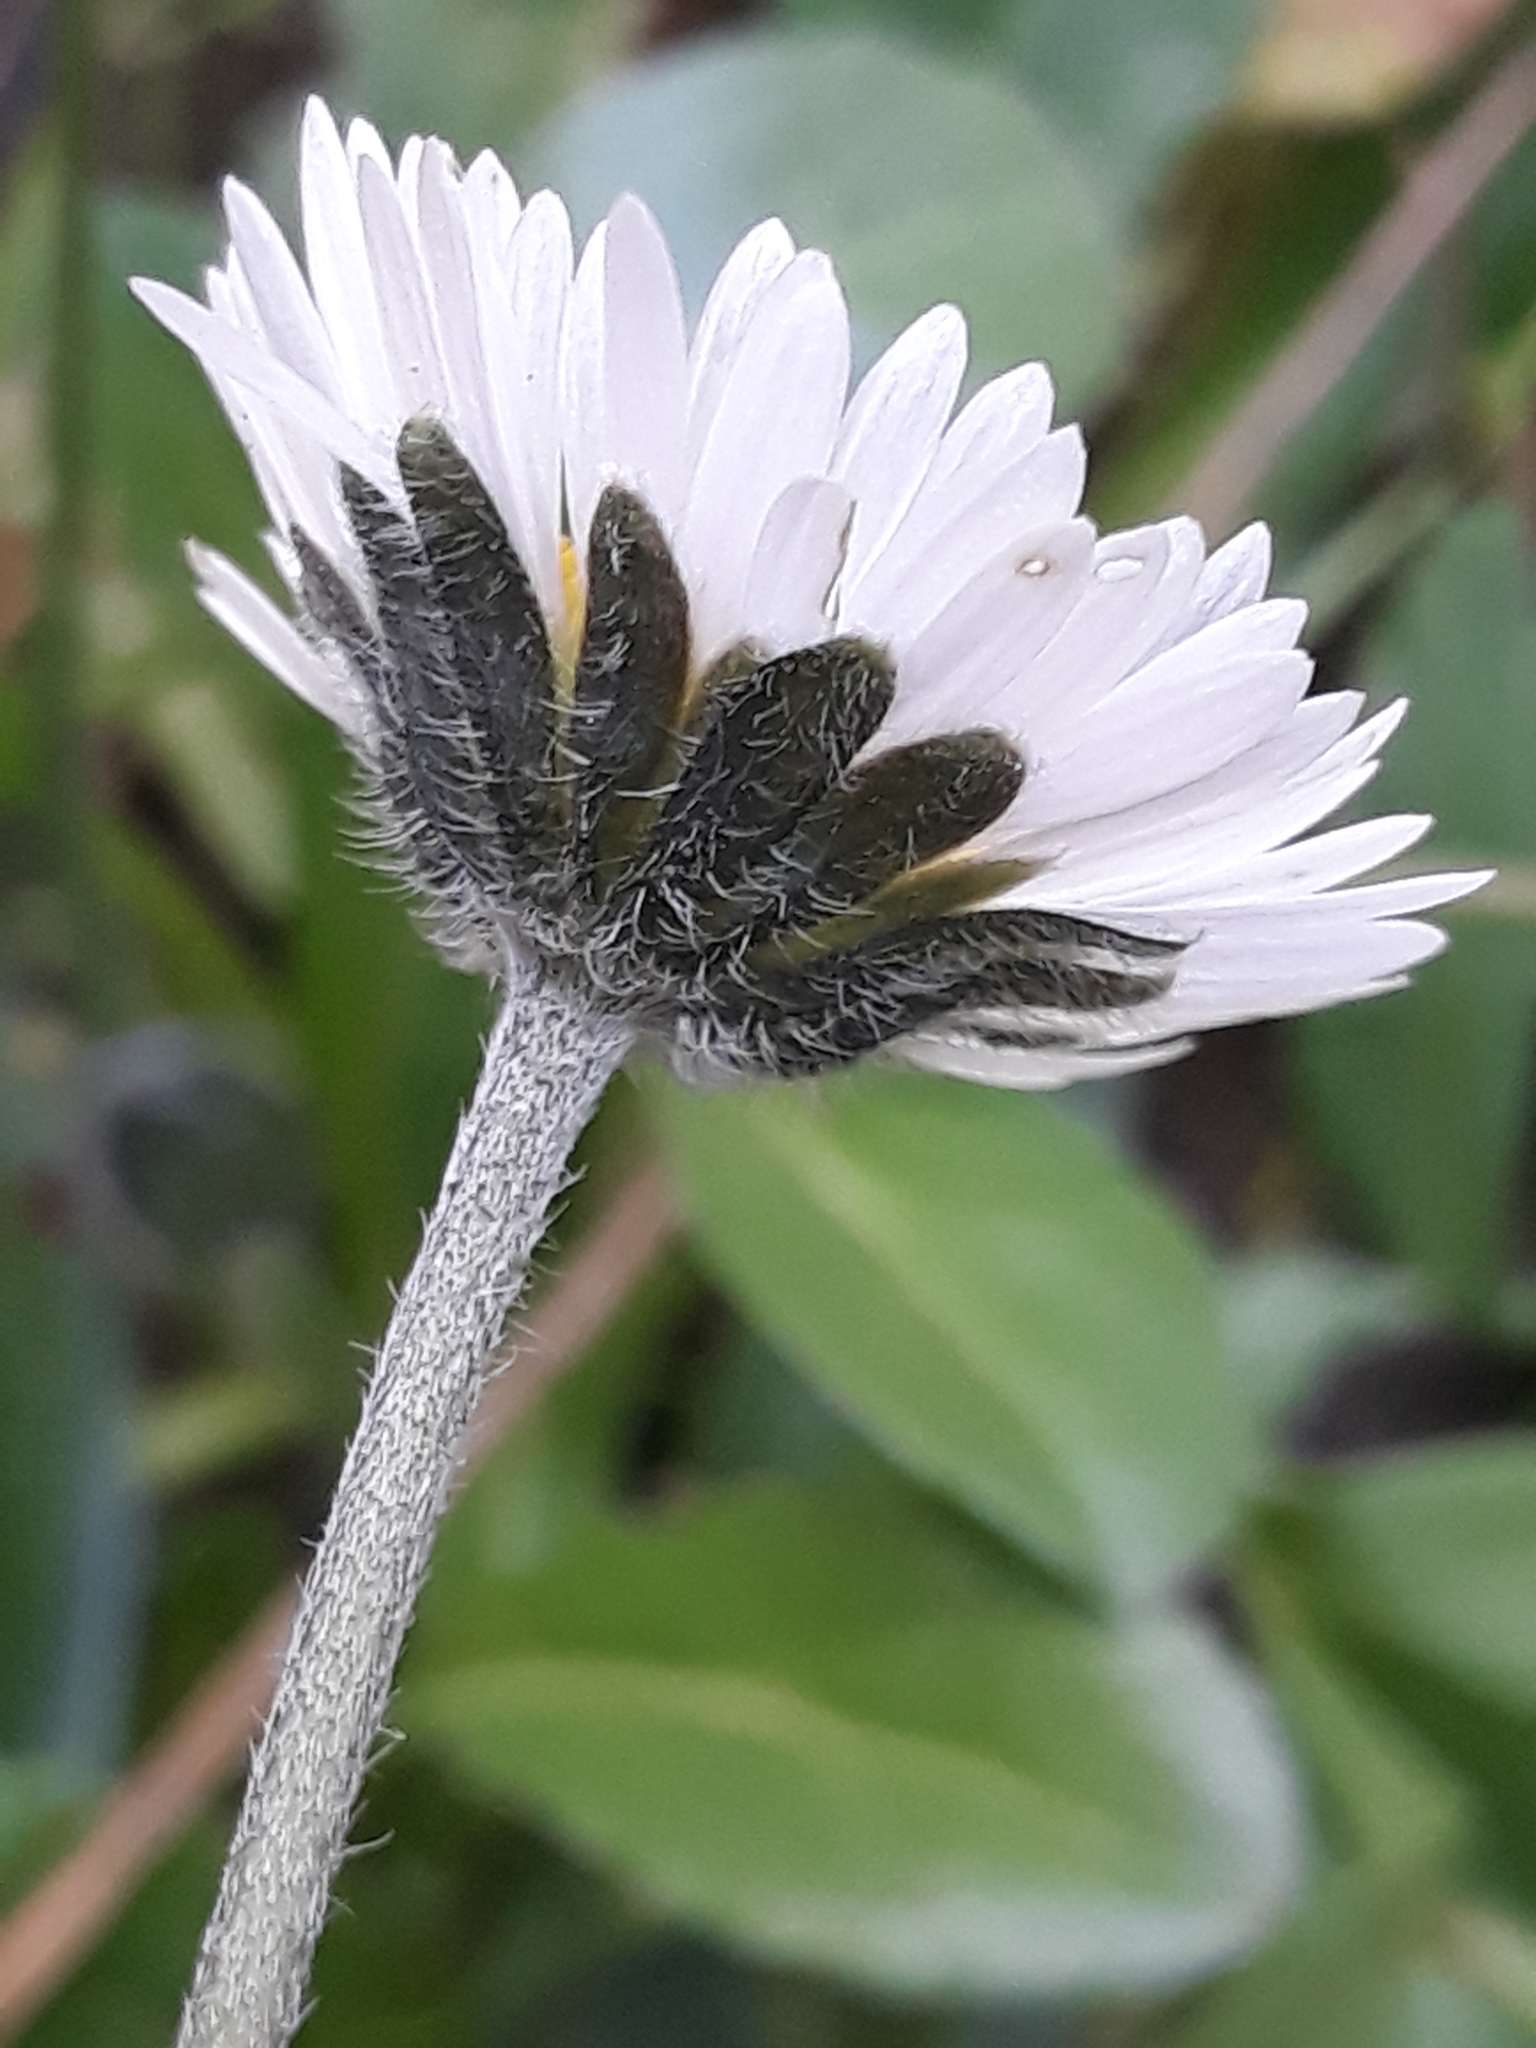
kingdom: Plantae
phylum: Tracheophyta
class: Magnoliopsida
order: Asterales
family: Asteraceae
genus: Bellis
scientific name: Bellis sylvestris
